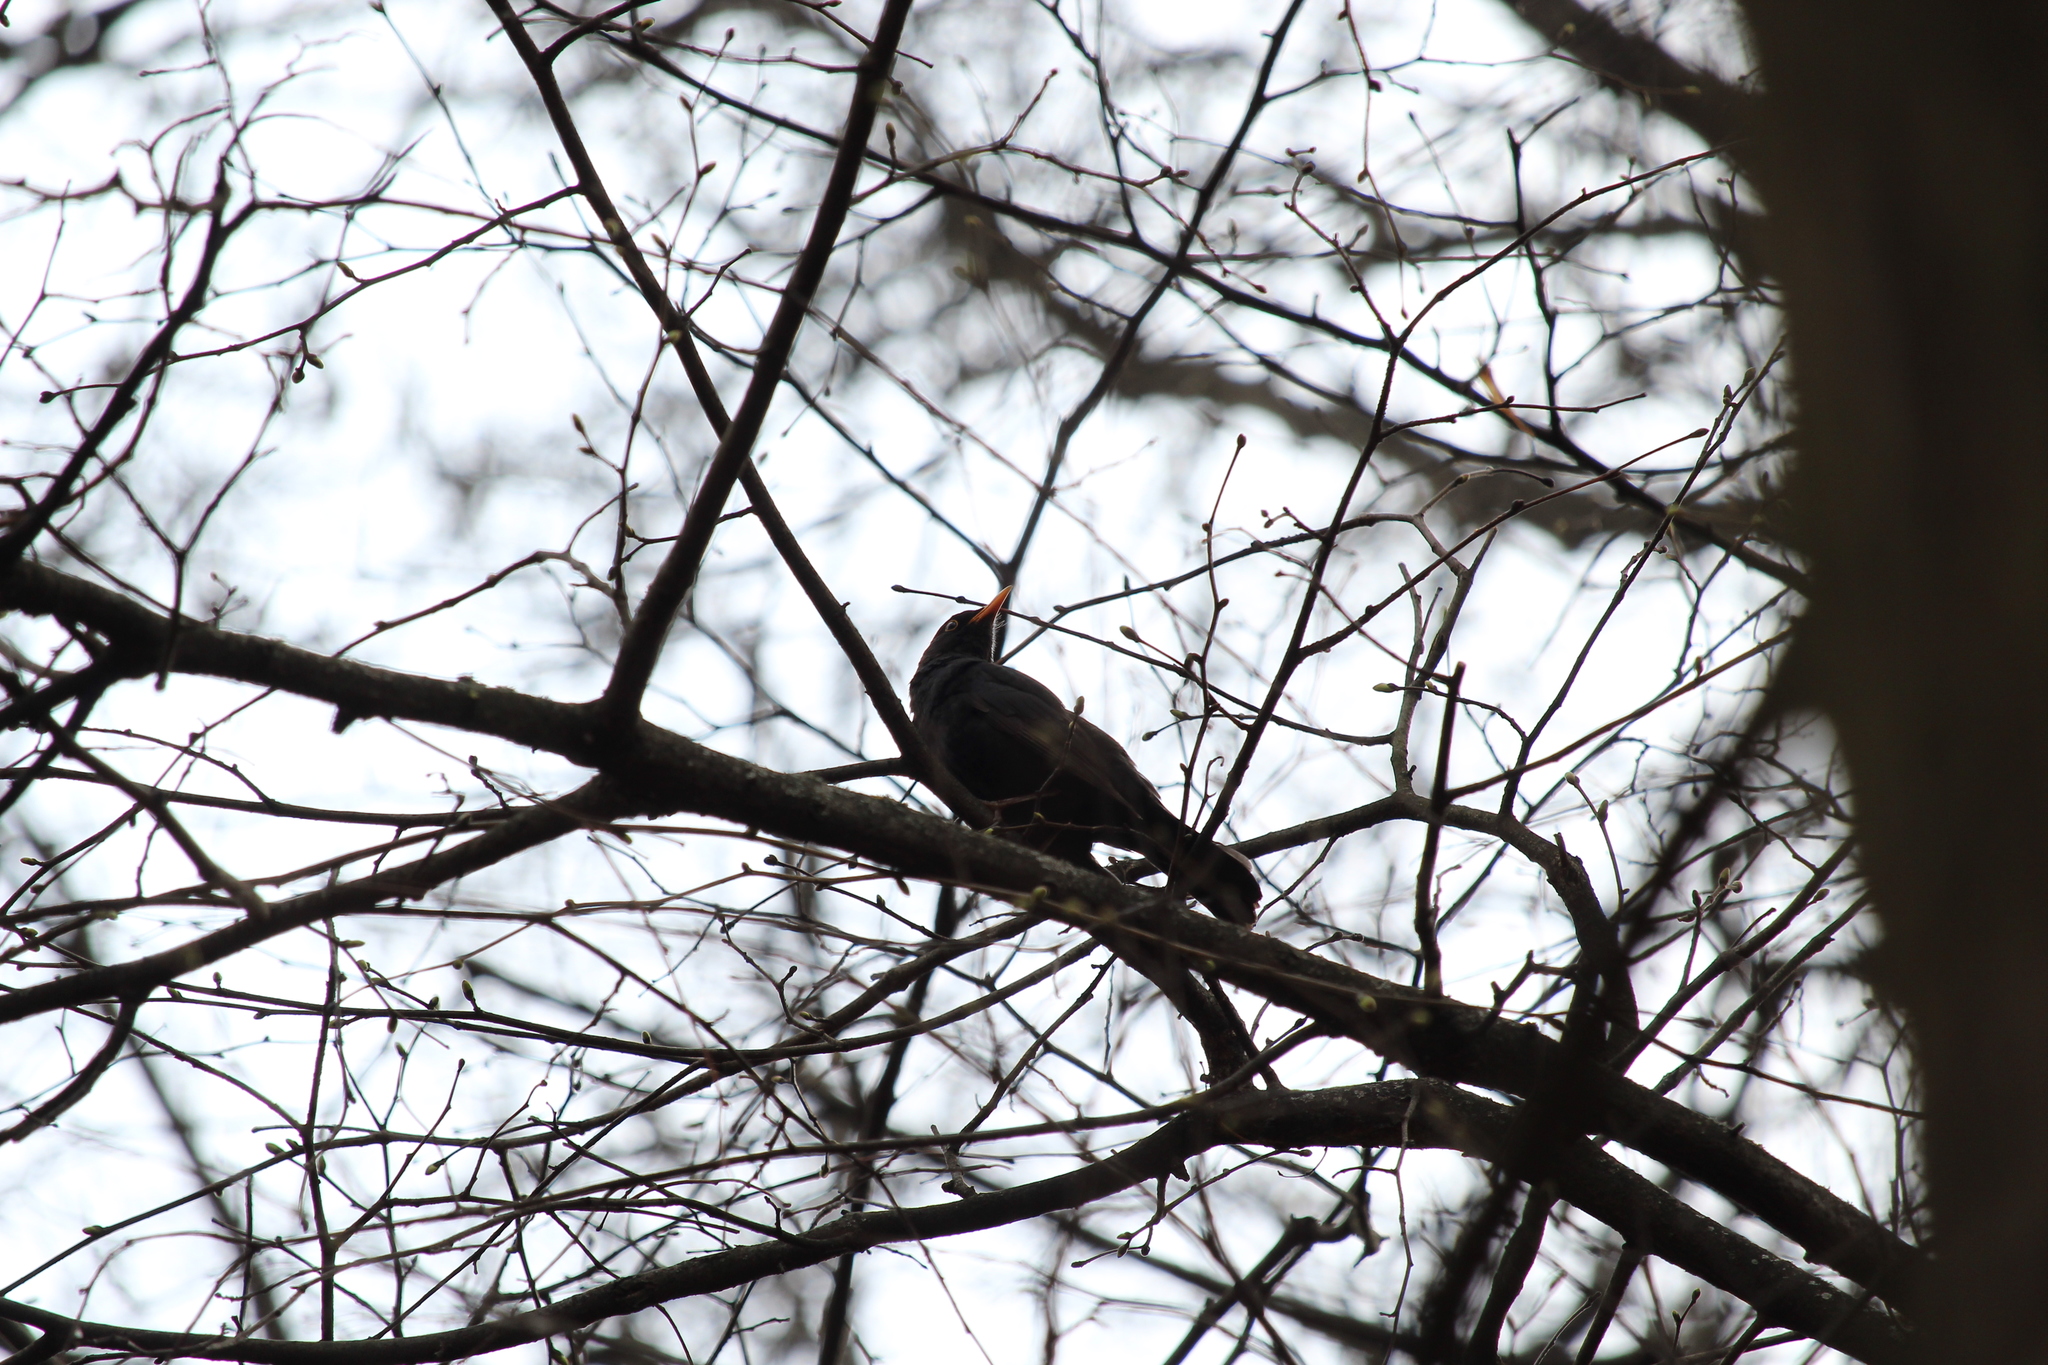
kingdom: Animalia
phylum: Chordata
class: Aves
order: Passeriformes
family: Turdidae
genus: Turdus
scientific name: Turdus merula
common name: Common blackbird
